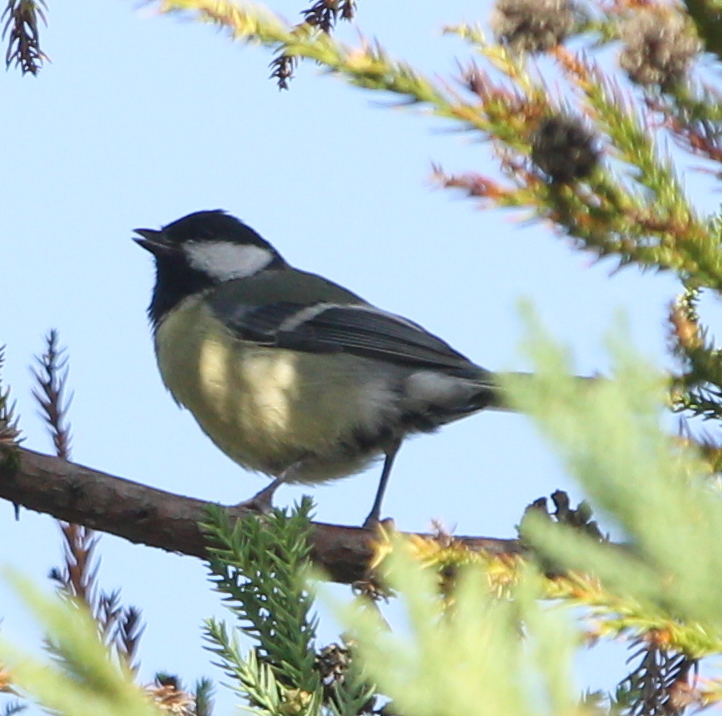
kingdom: Animalia
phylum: Chordata
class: Aves
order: Passeriformes
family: Paridae
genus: Parus
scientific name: Parus major
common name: Great tit
